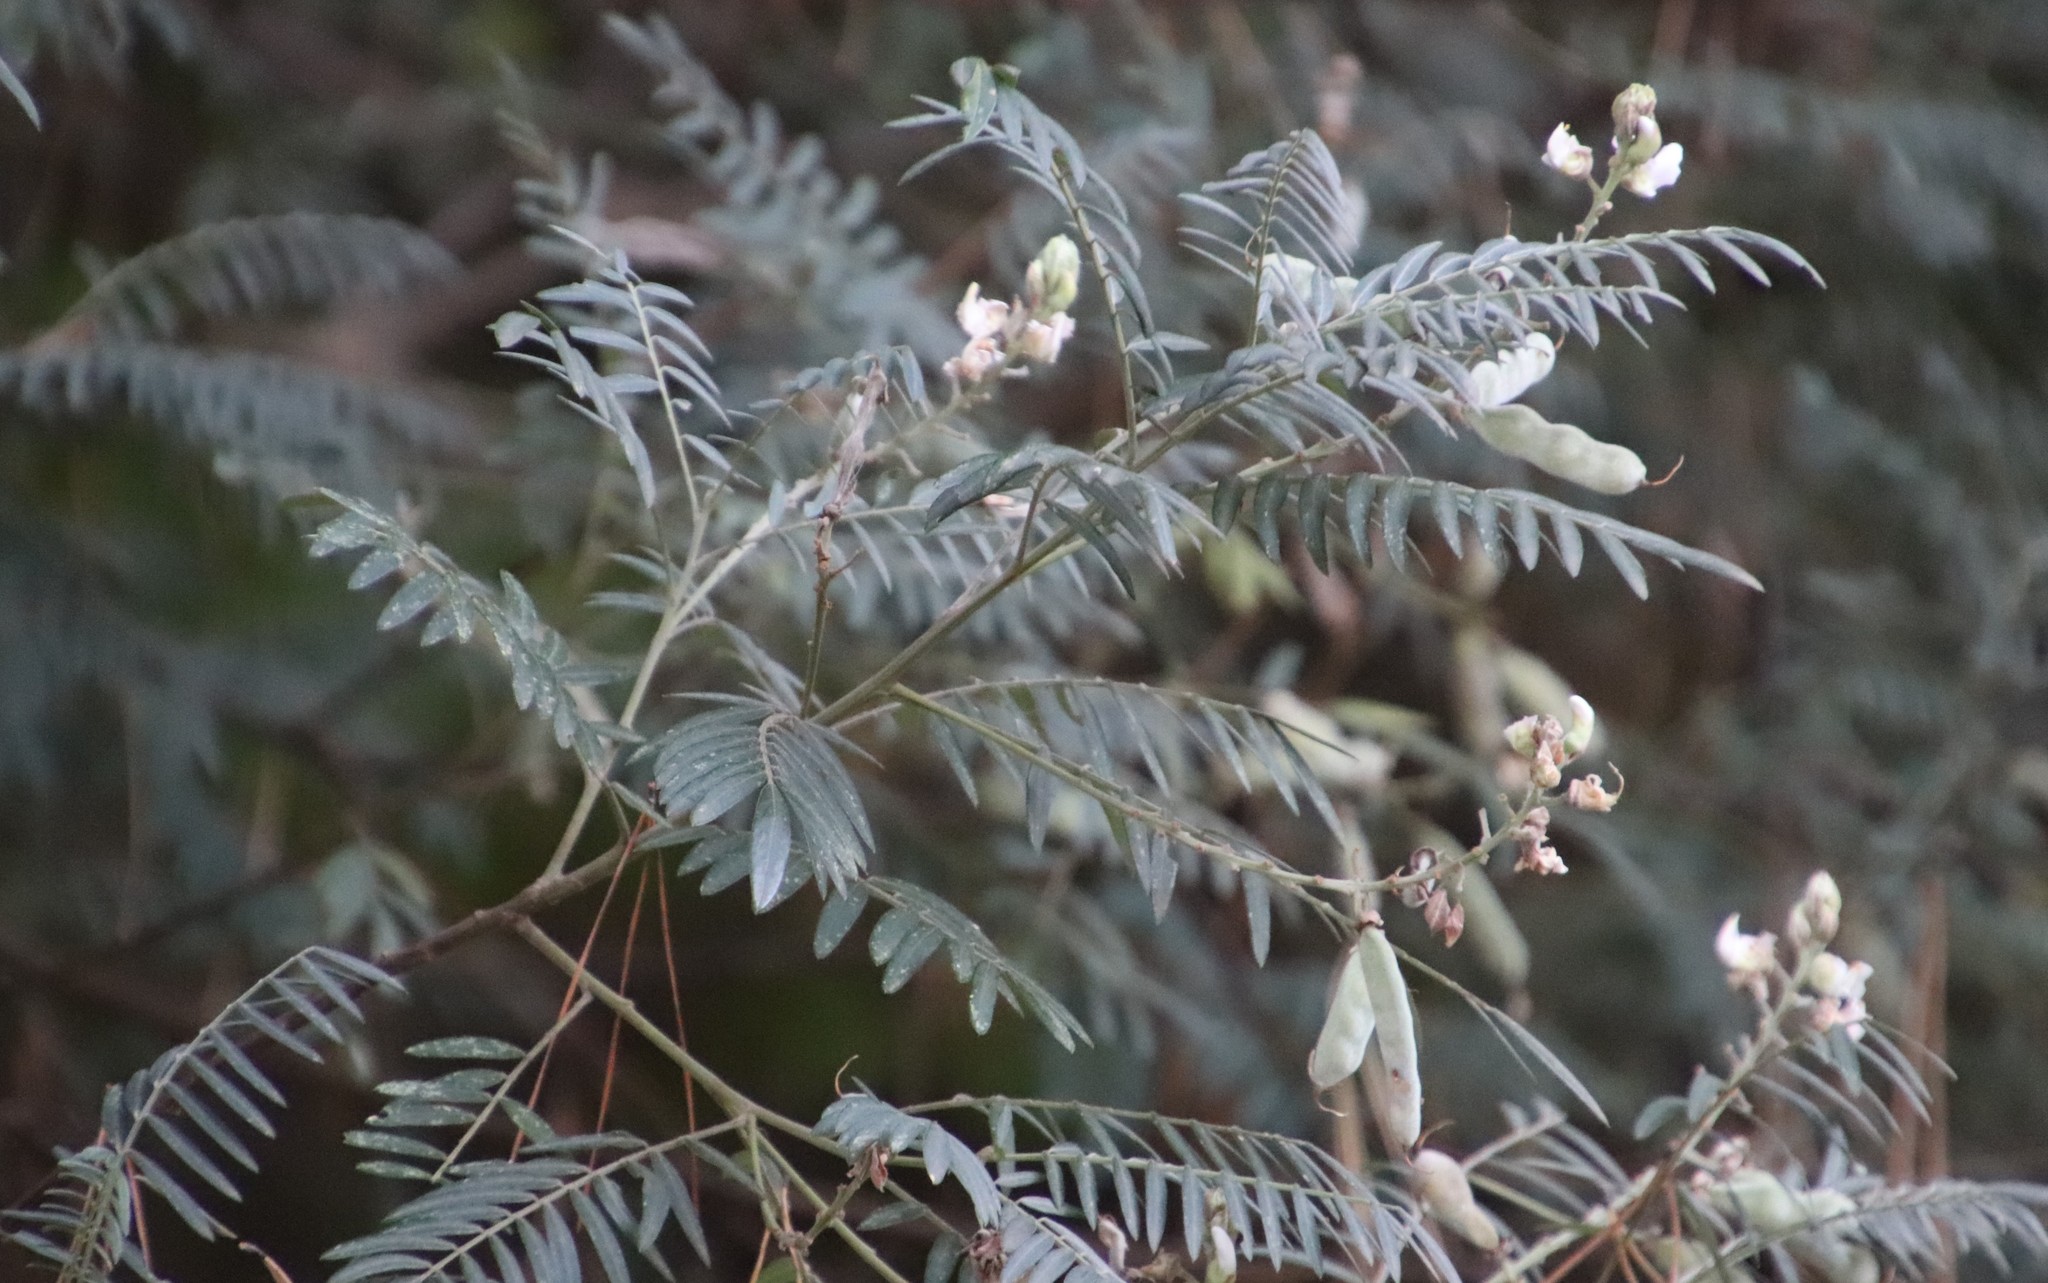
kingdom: Plantae
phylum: Tracheophyta
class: Magnoliopsida
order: Fabales
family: Fabaceae
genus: Virgilia
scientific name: Virgilia oroboides
